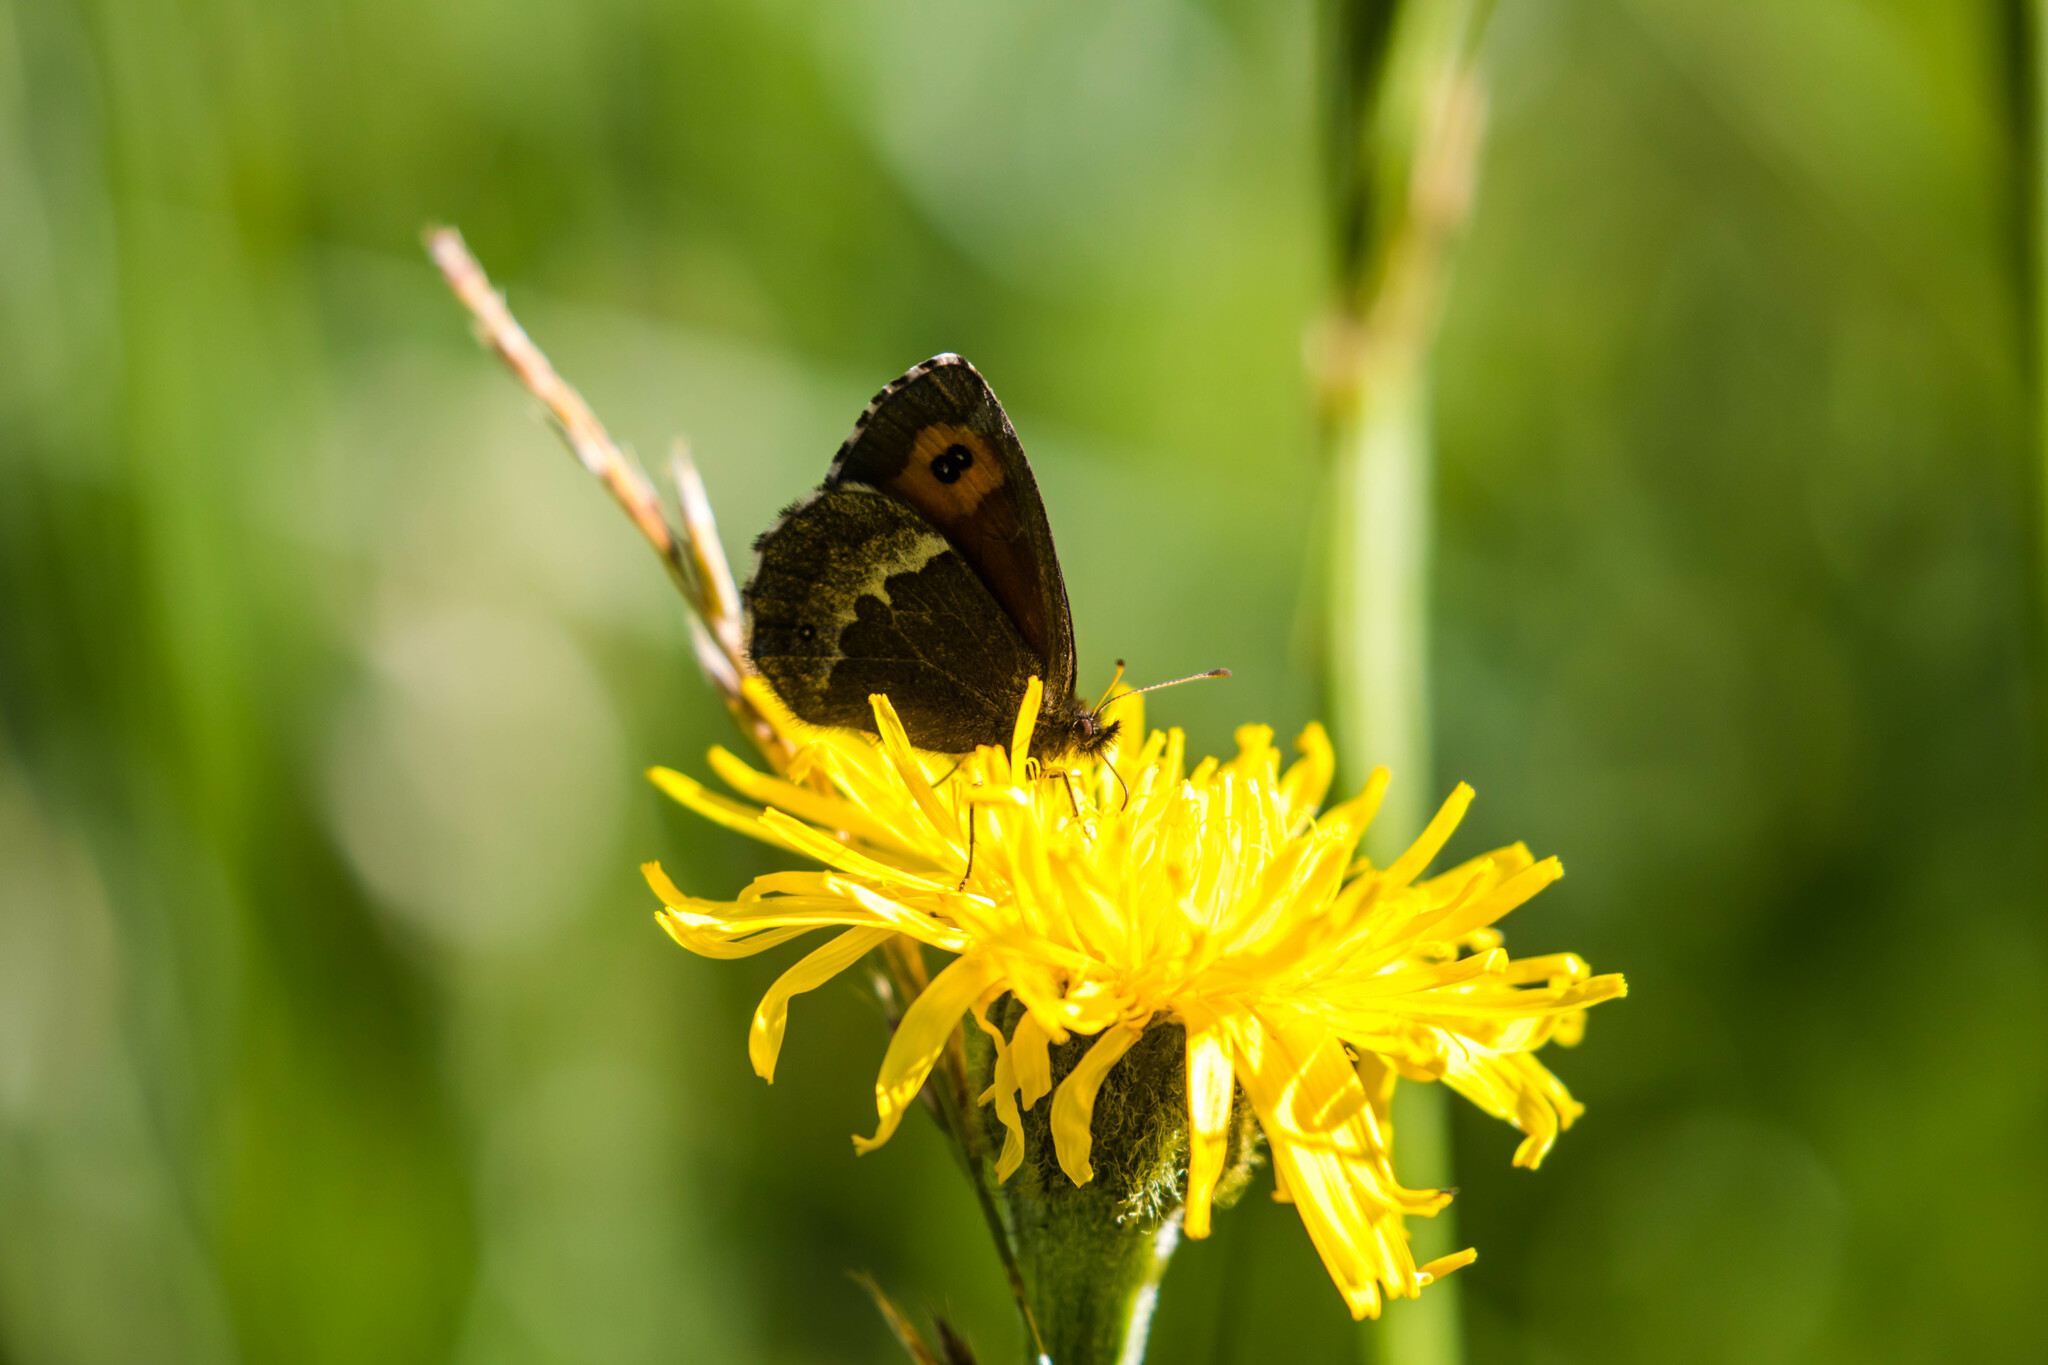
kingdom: Animalia
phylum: Arthropoda
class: Insecta
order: Lepidoptera
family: Nymphalidae
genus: Erebia
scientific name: Erebia euryale
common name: Large ringlet
